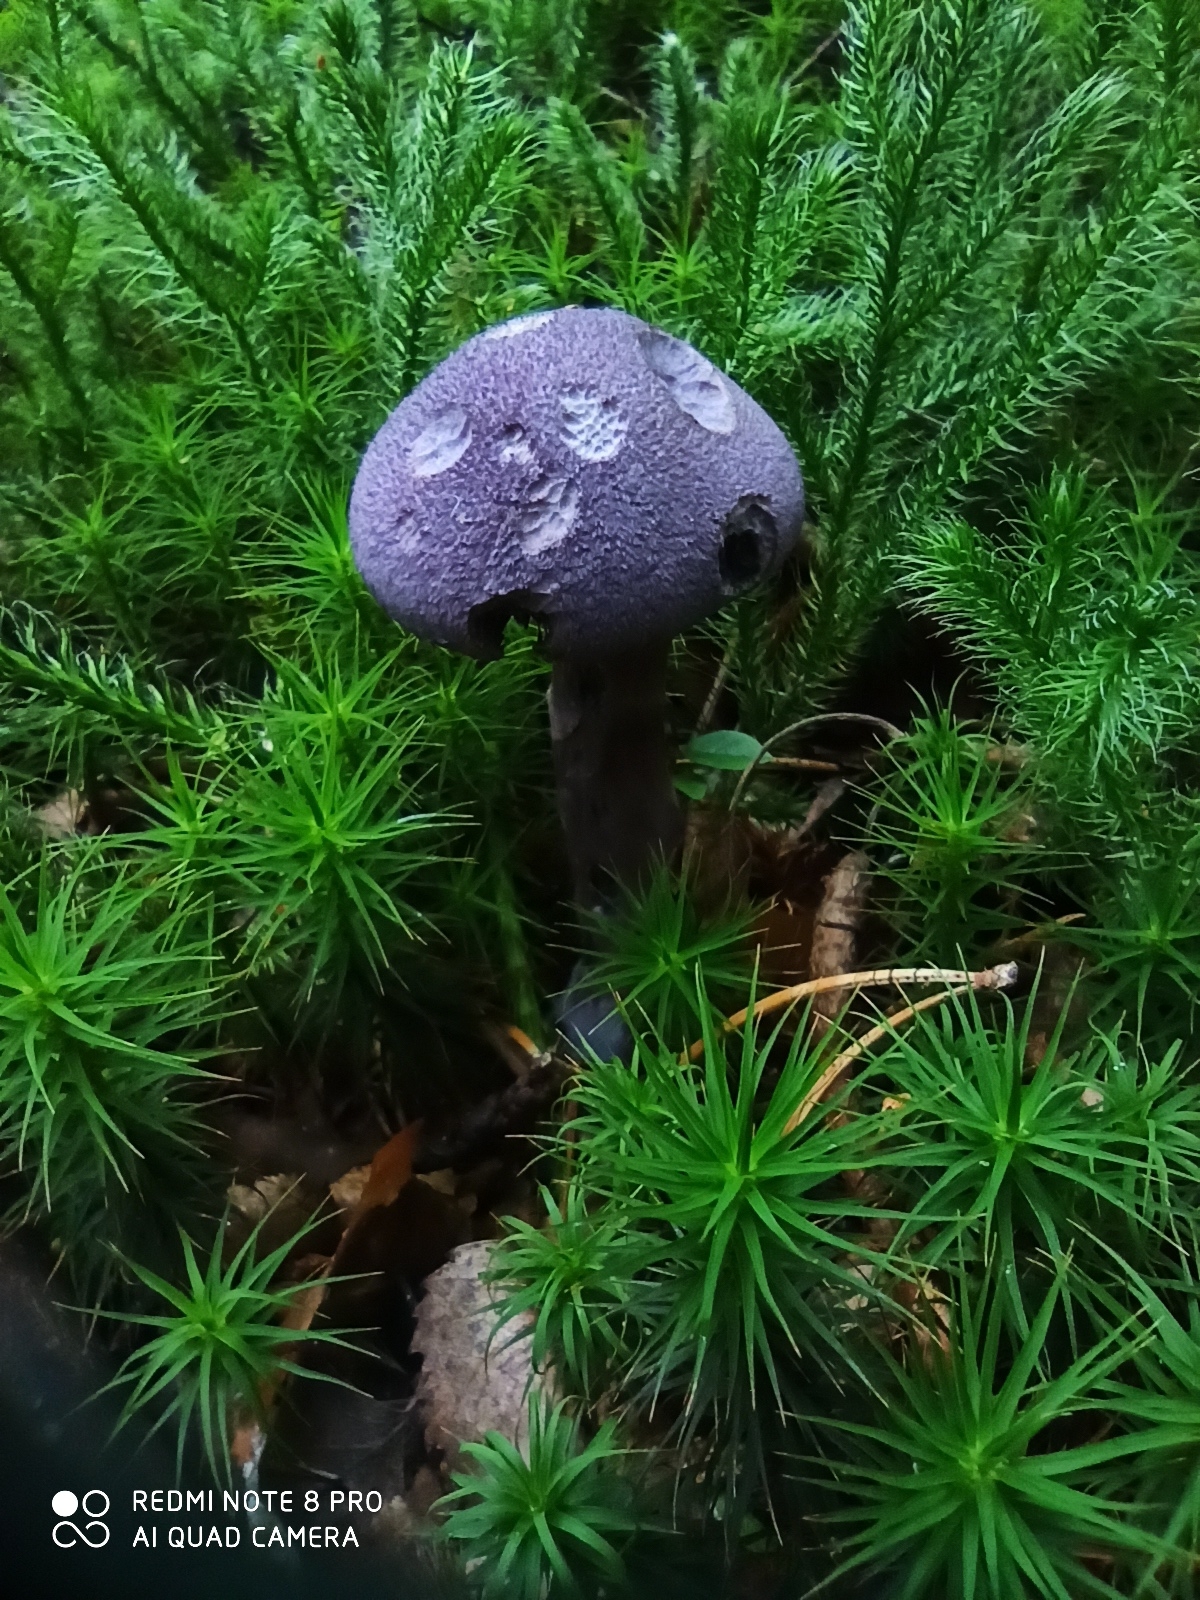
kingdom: Fungi
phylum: Basidiomycota
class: Agaricomycetes
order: Agaricales
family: Cortinariaceae
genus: Cortinarius
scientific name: Cortinarius violaceus
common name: Violet webcap
